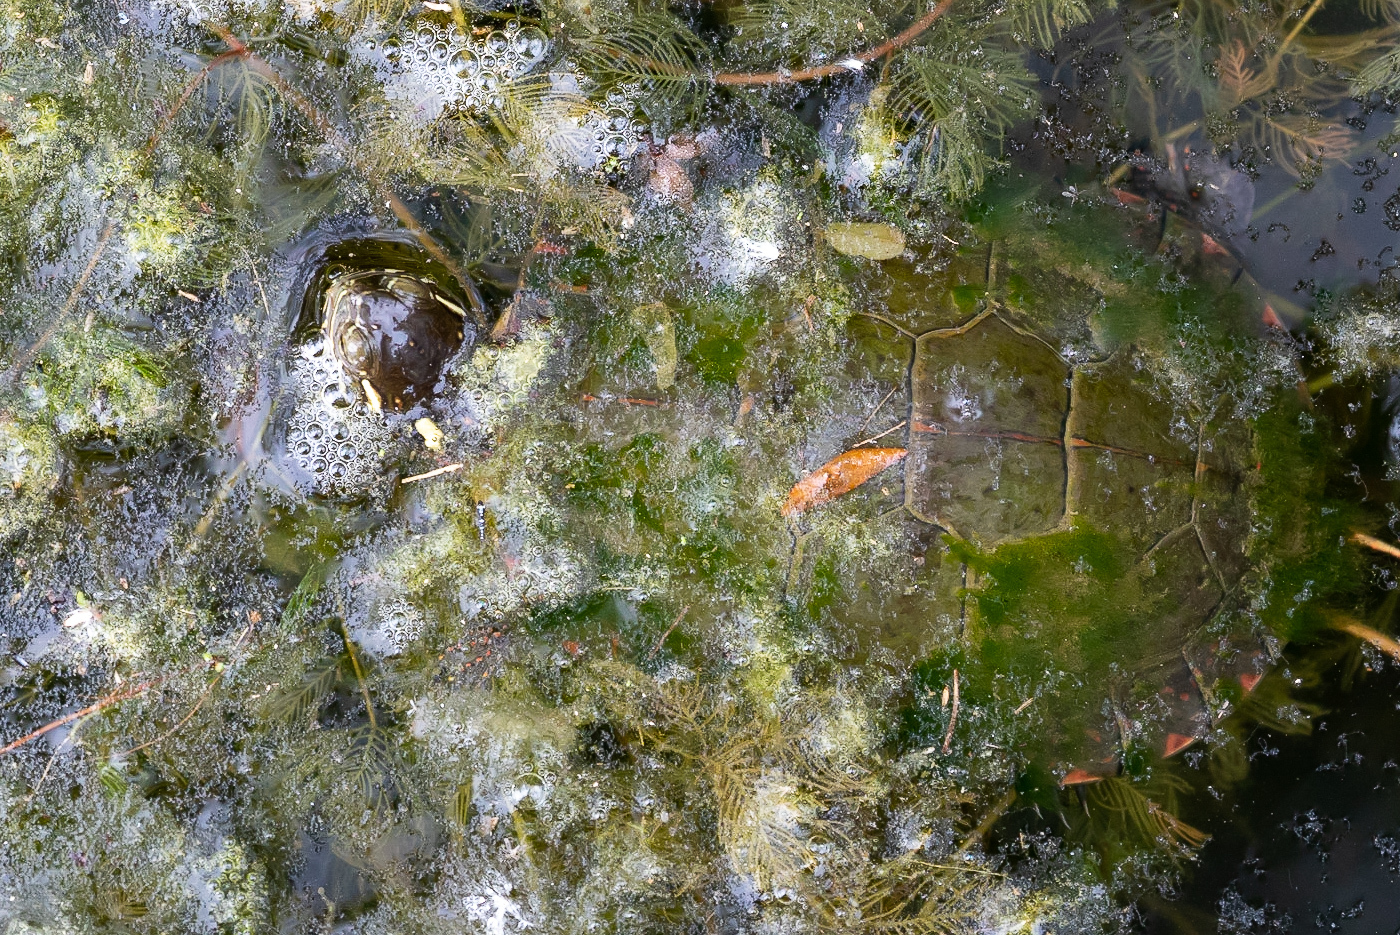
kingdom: Animalia
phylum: Chordata
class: Testudines
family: Emydidae
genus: Chrysemys
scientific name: Chrysemys picta
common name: Painted turtle
